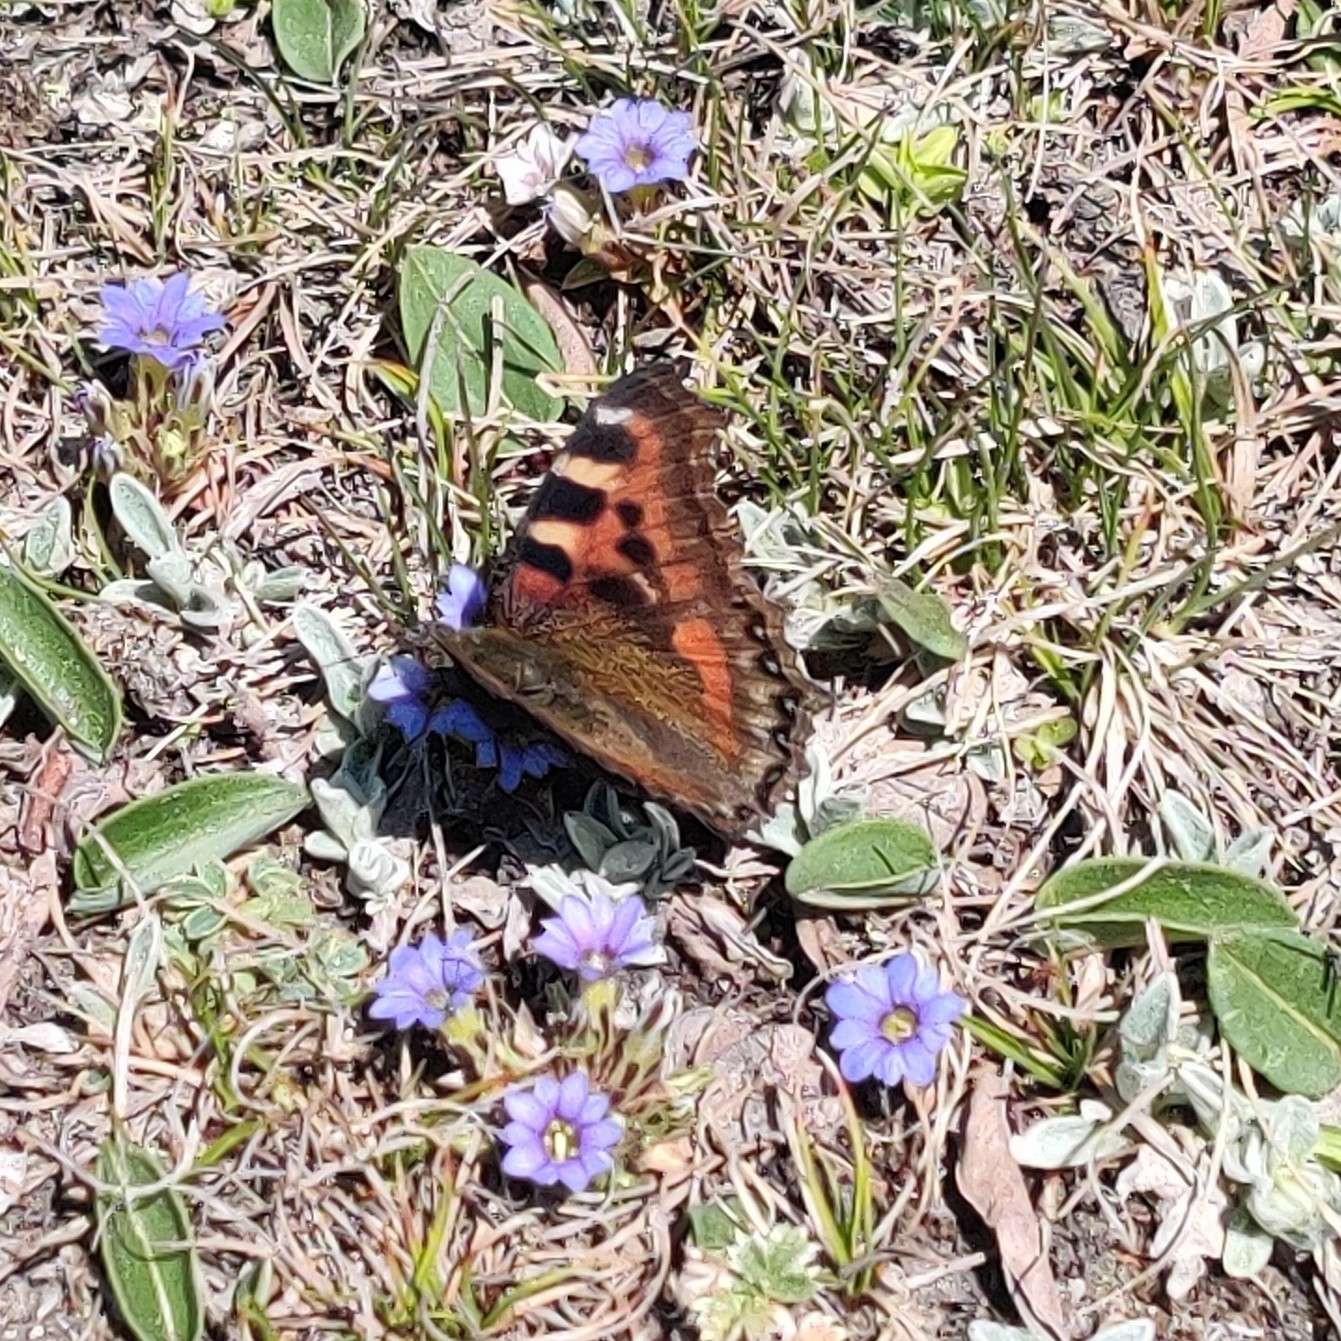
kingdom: Animalia
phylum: Arthropoda
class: Insecta
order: Lepidoptera
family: Nymphalidae
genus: Aglais
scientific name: Aglais caschmirensis
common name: Indian tortoiseshell
